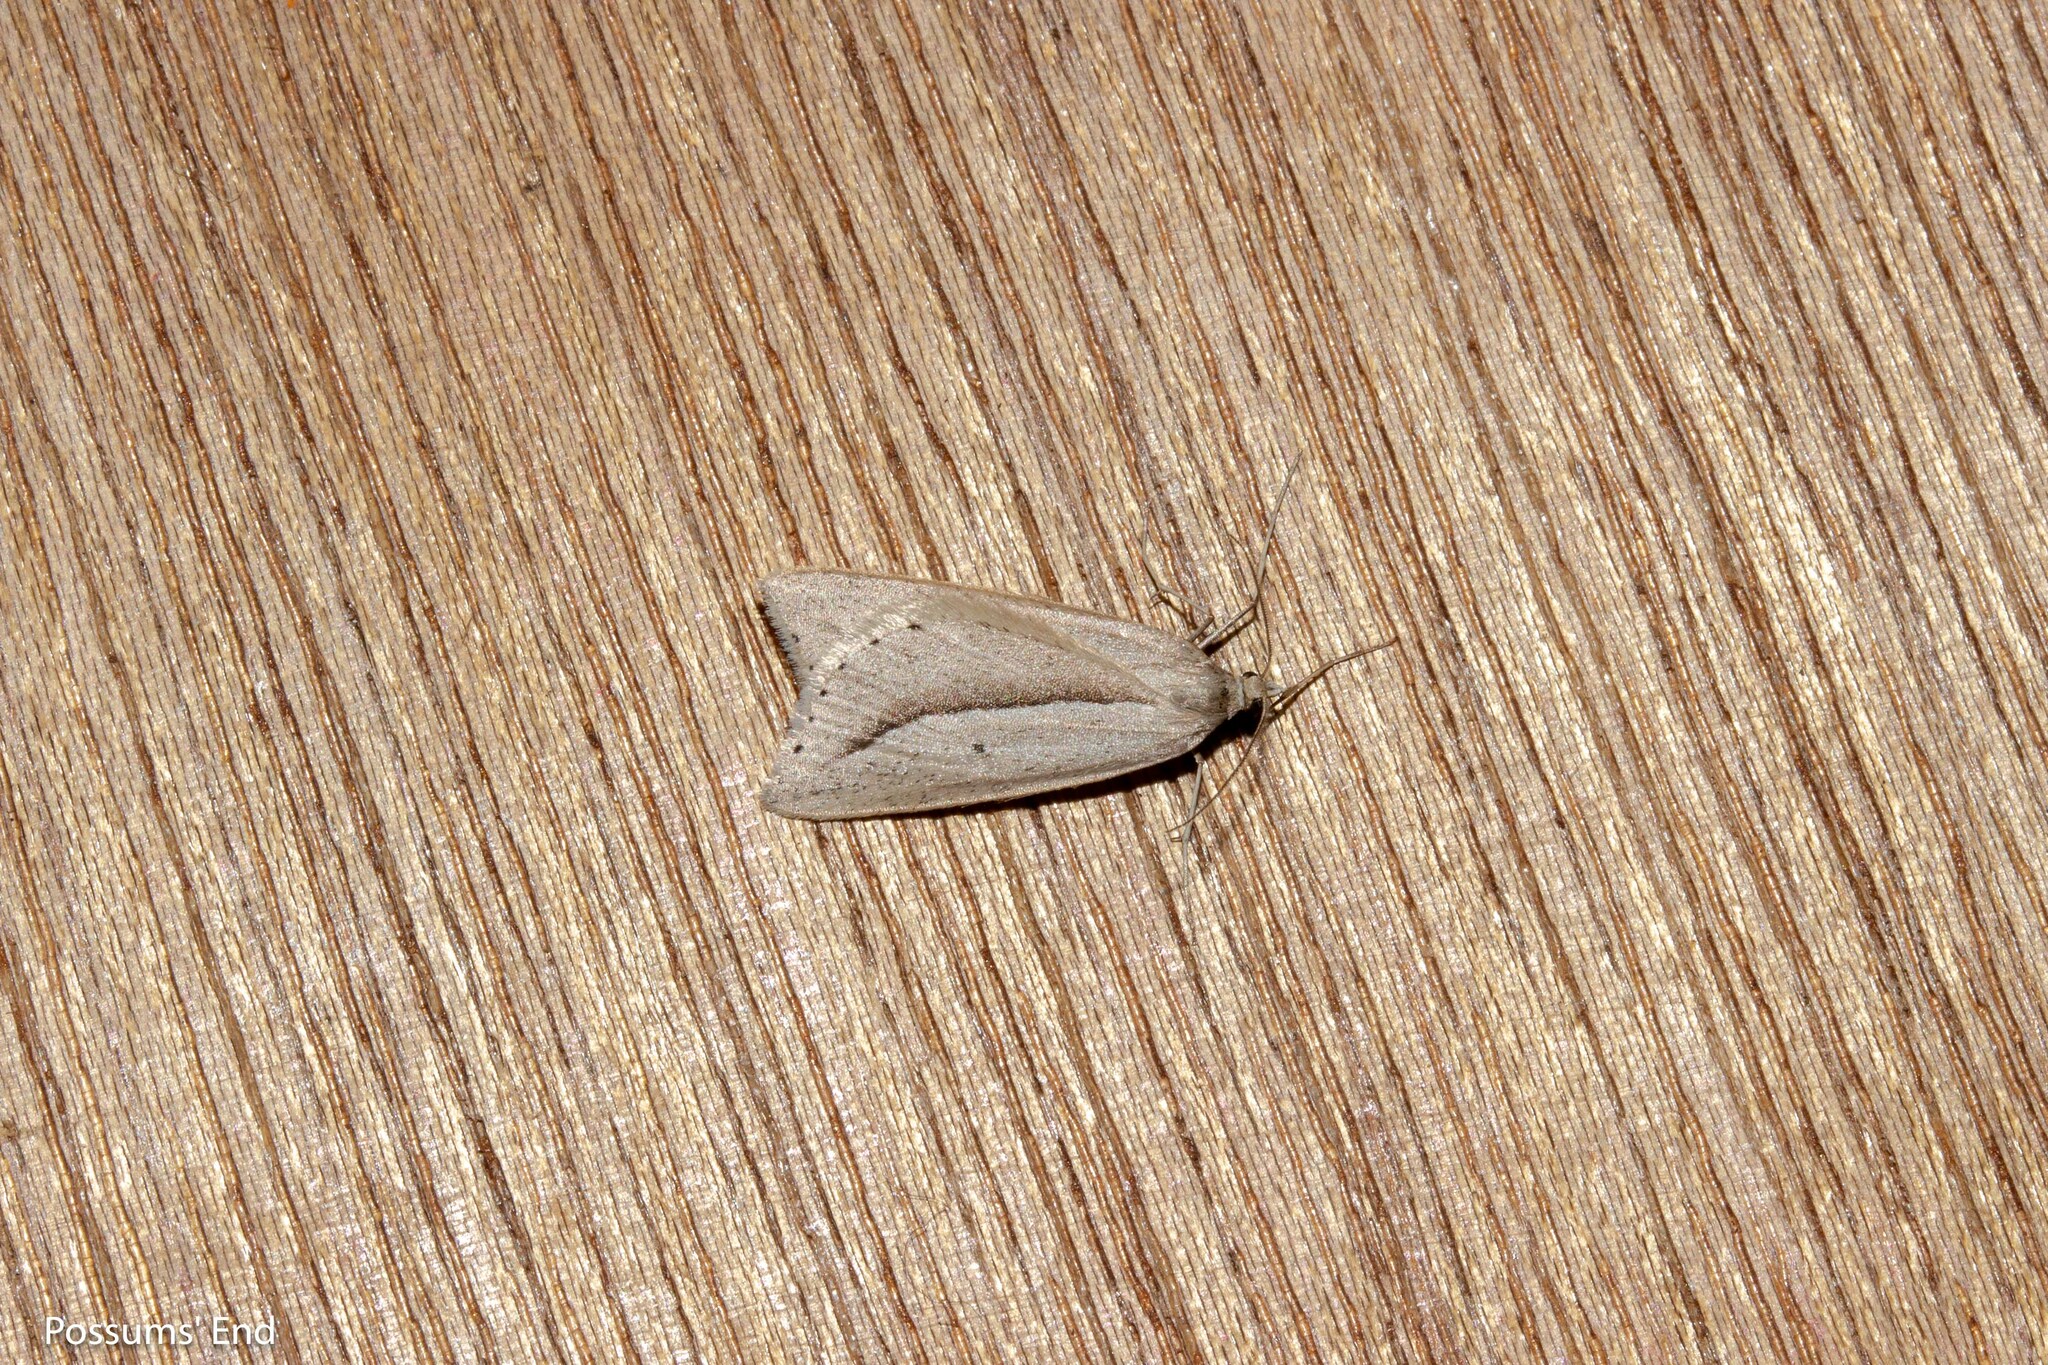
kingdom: Animalia
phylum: Arthropoda
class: Insecta
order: Lepidoptera
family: Geometridae
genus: Theoxena
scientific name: Theoxena scissaria
